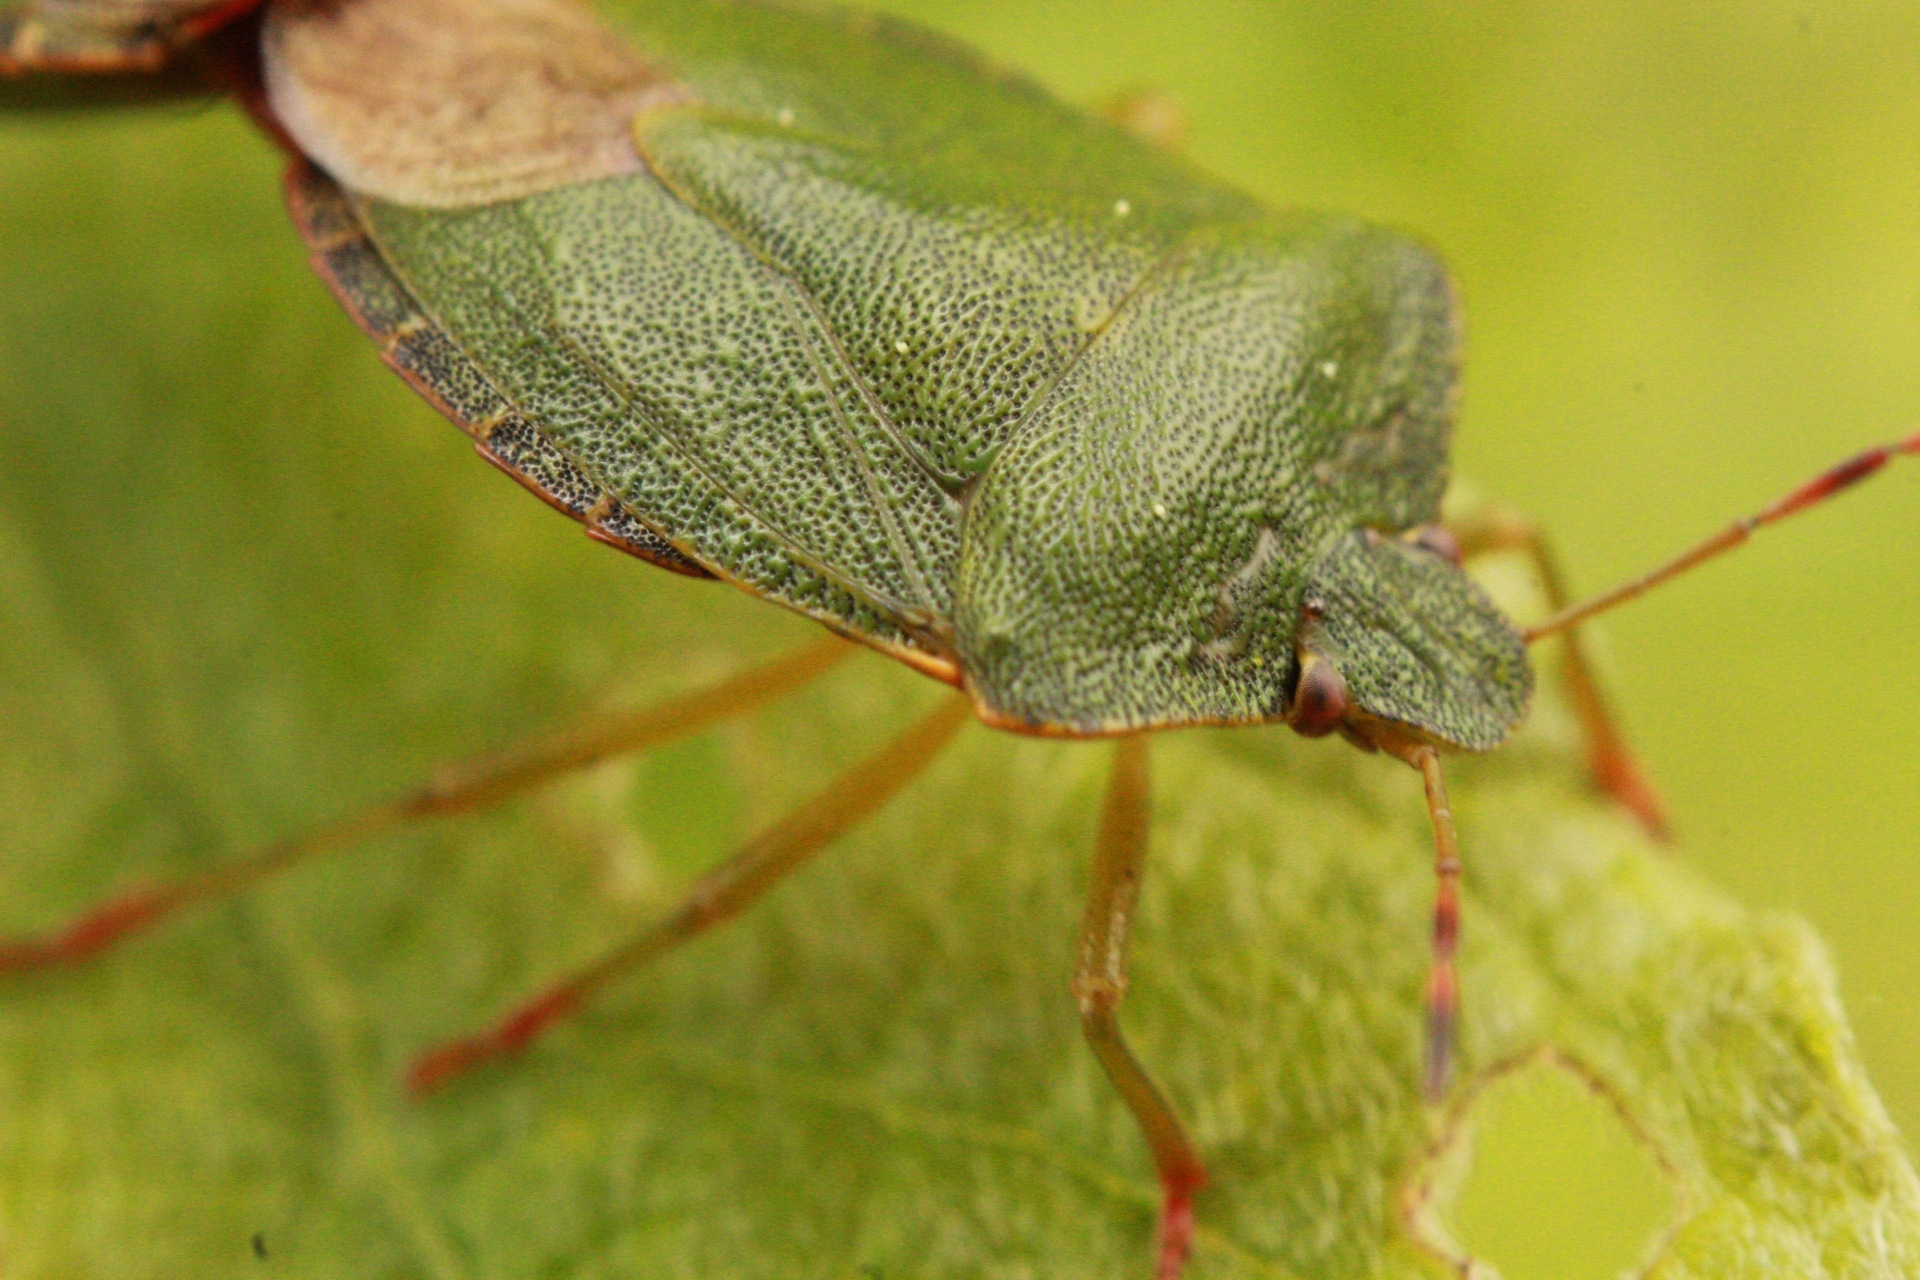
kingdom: Animalia
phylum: Arthropoda
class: Insecta
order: Hemiptera
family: Pentatomidae
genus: Palomena
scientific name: Palomena prasina
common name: Green shieldbug
